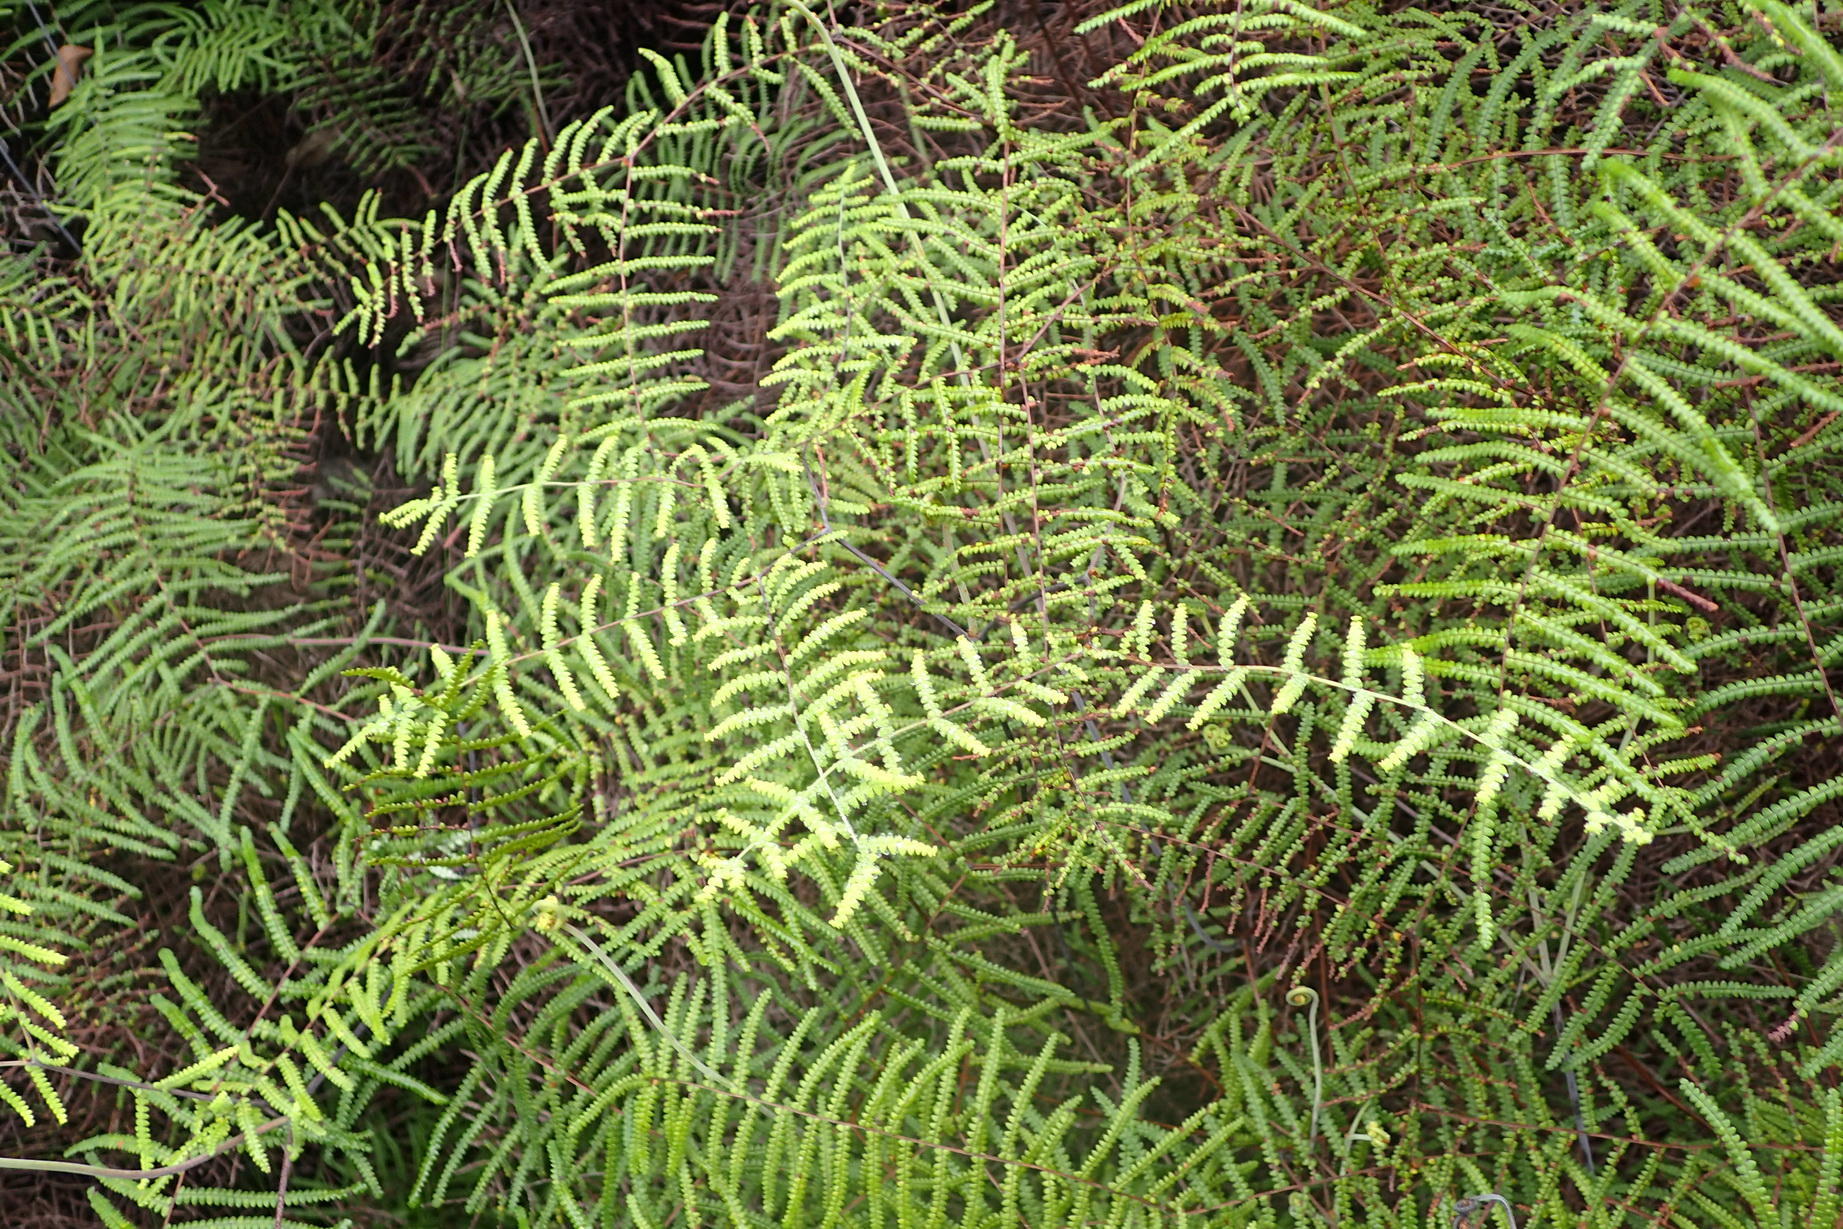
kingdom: Plantae
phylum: Tracheophyta
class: Polypodiopsida
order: Gleicheniales
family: Gleicheniaceae
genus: Gleichenia
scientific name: Gleichenia polypodioides
